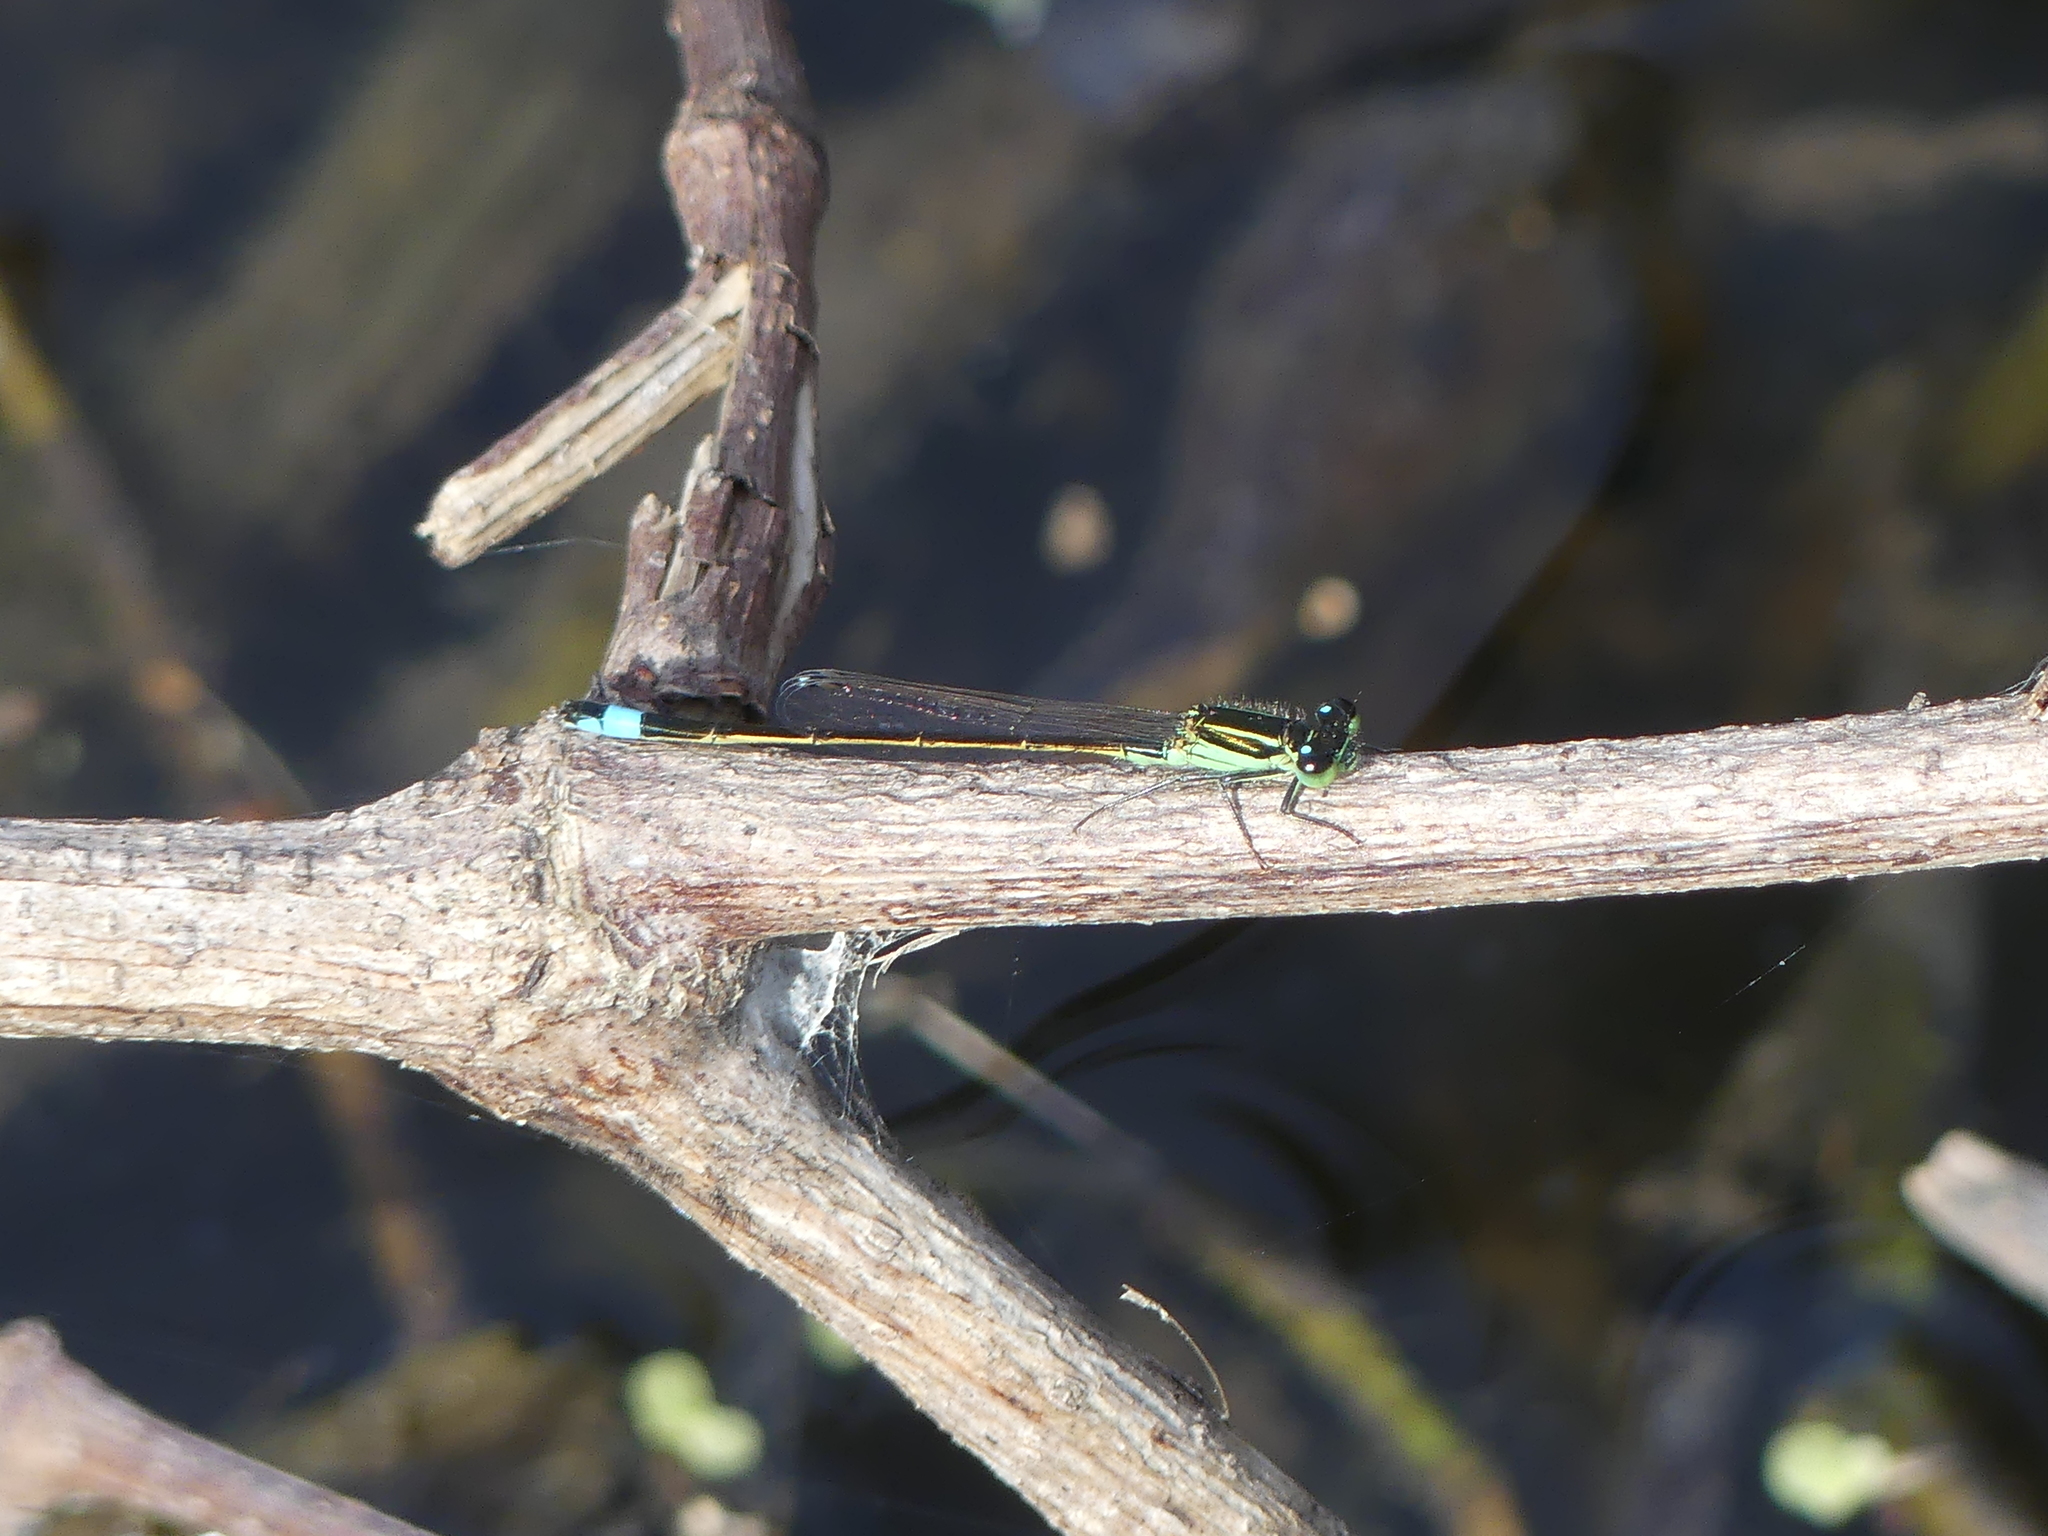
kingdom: Animalia
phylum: Arthropoda
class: Insecta
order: Odonata
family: Coenagrionidae
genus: Ischnura
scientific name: Ischnura ramburii
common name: Rambur's forktail
